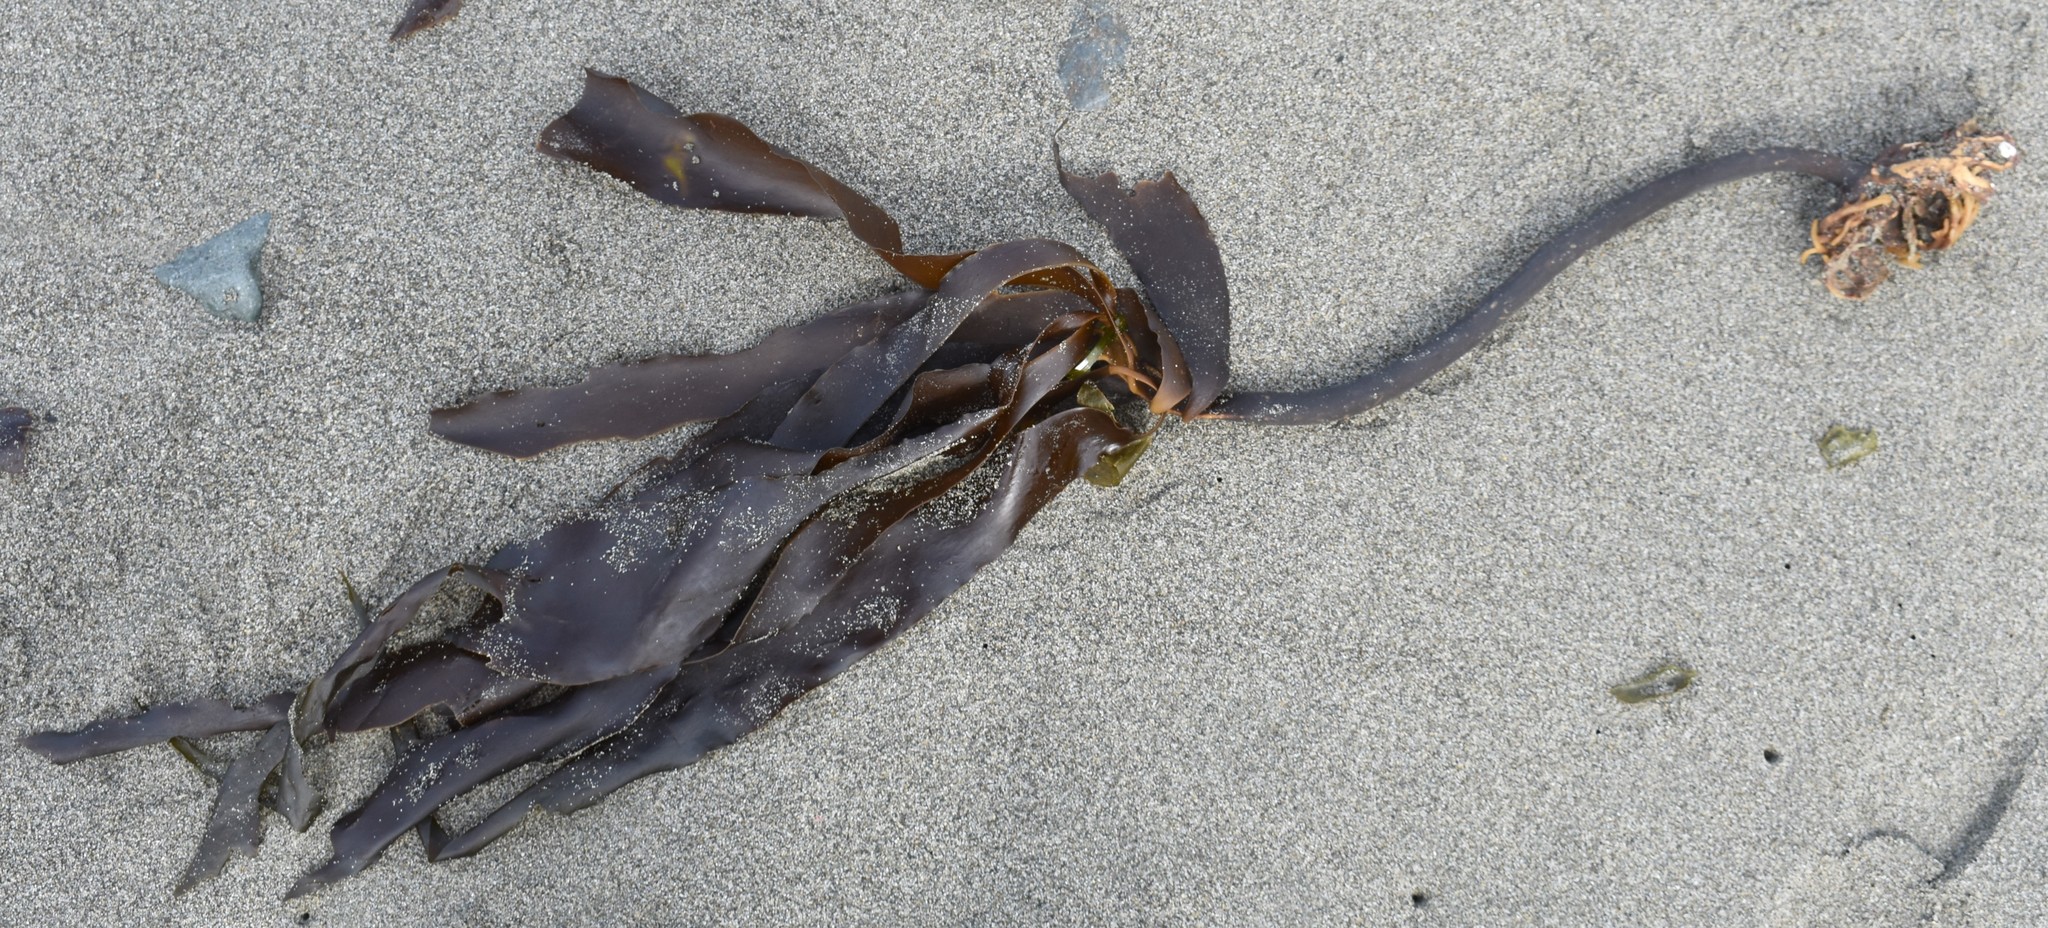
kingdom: Chromista
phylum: Ochrophyta
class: Phaeophyceae
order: Laminariales
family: Alariaceae
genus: Pterygophora
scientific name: Pterygophora californica
